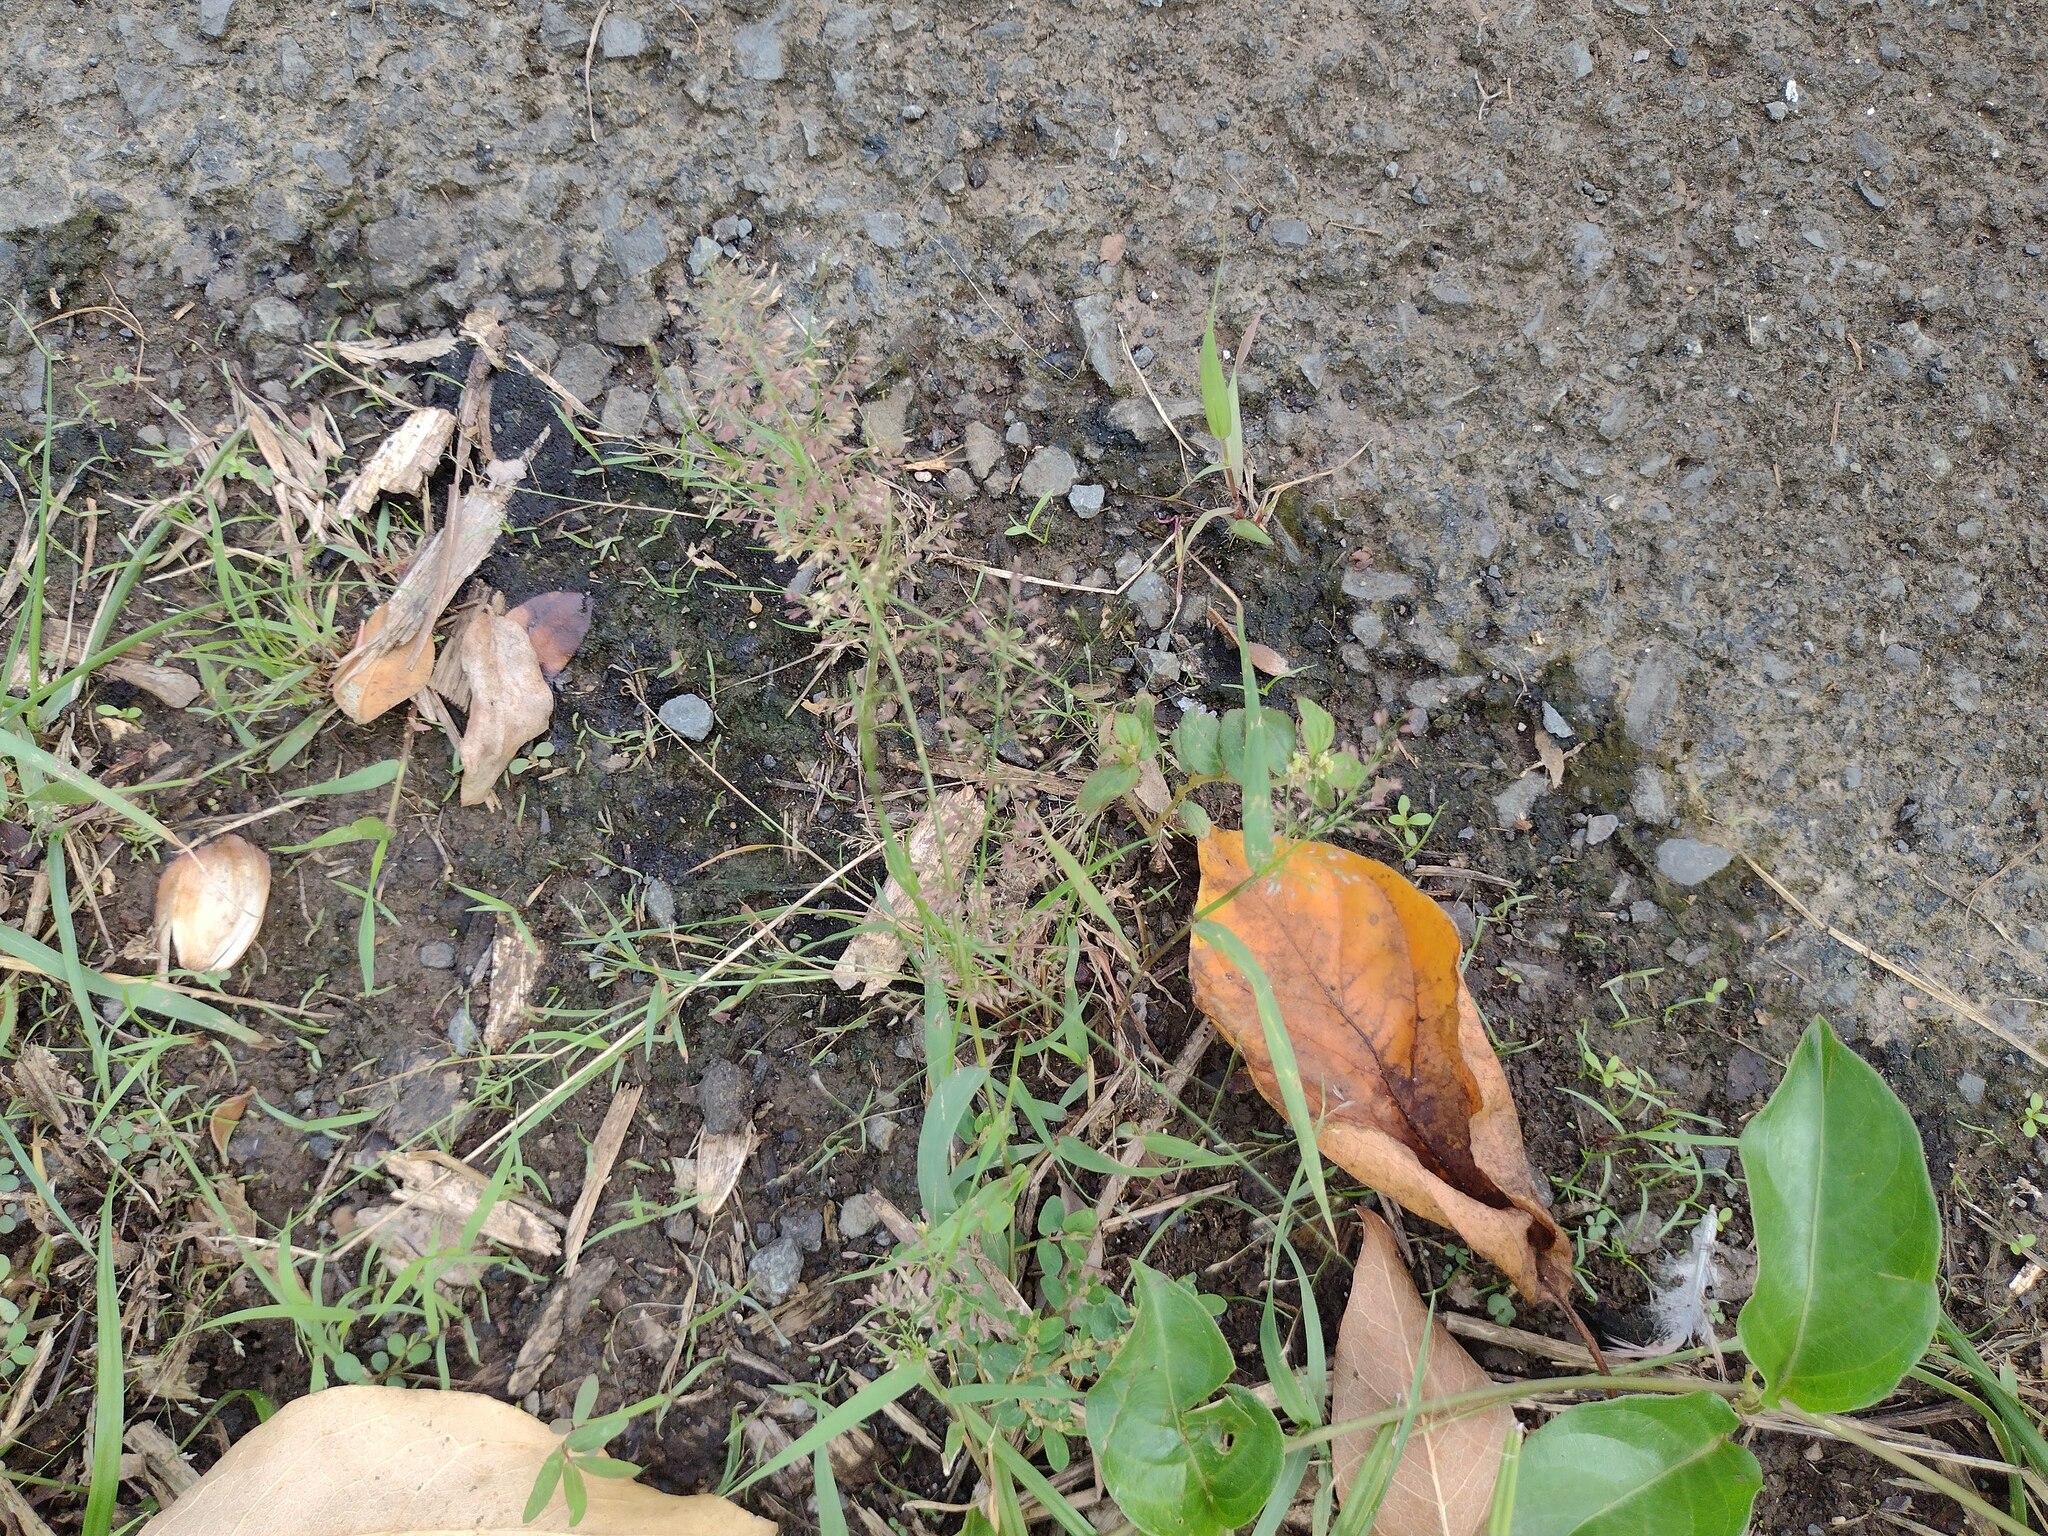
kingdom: Plantae
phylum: Tracheophyta
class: Liliopsida
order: Poales
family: Poaceae
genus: Eragrostis
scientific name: Eragrostis tenella
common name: Japanese lovegrass
